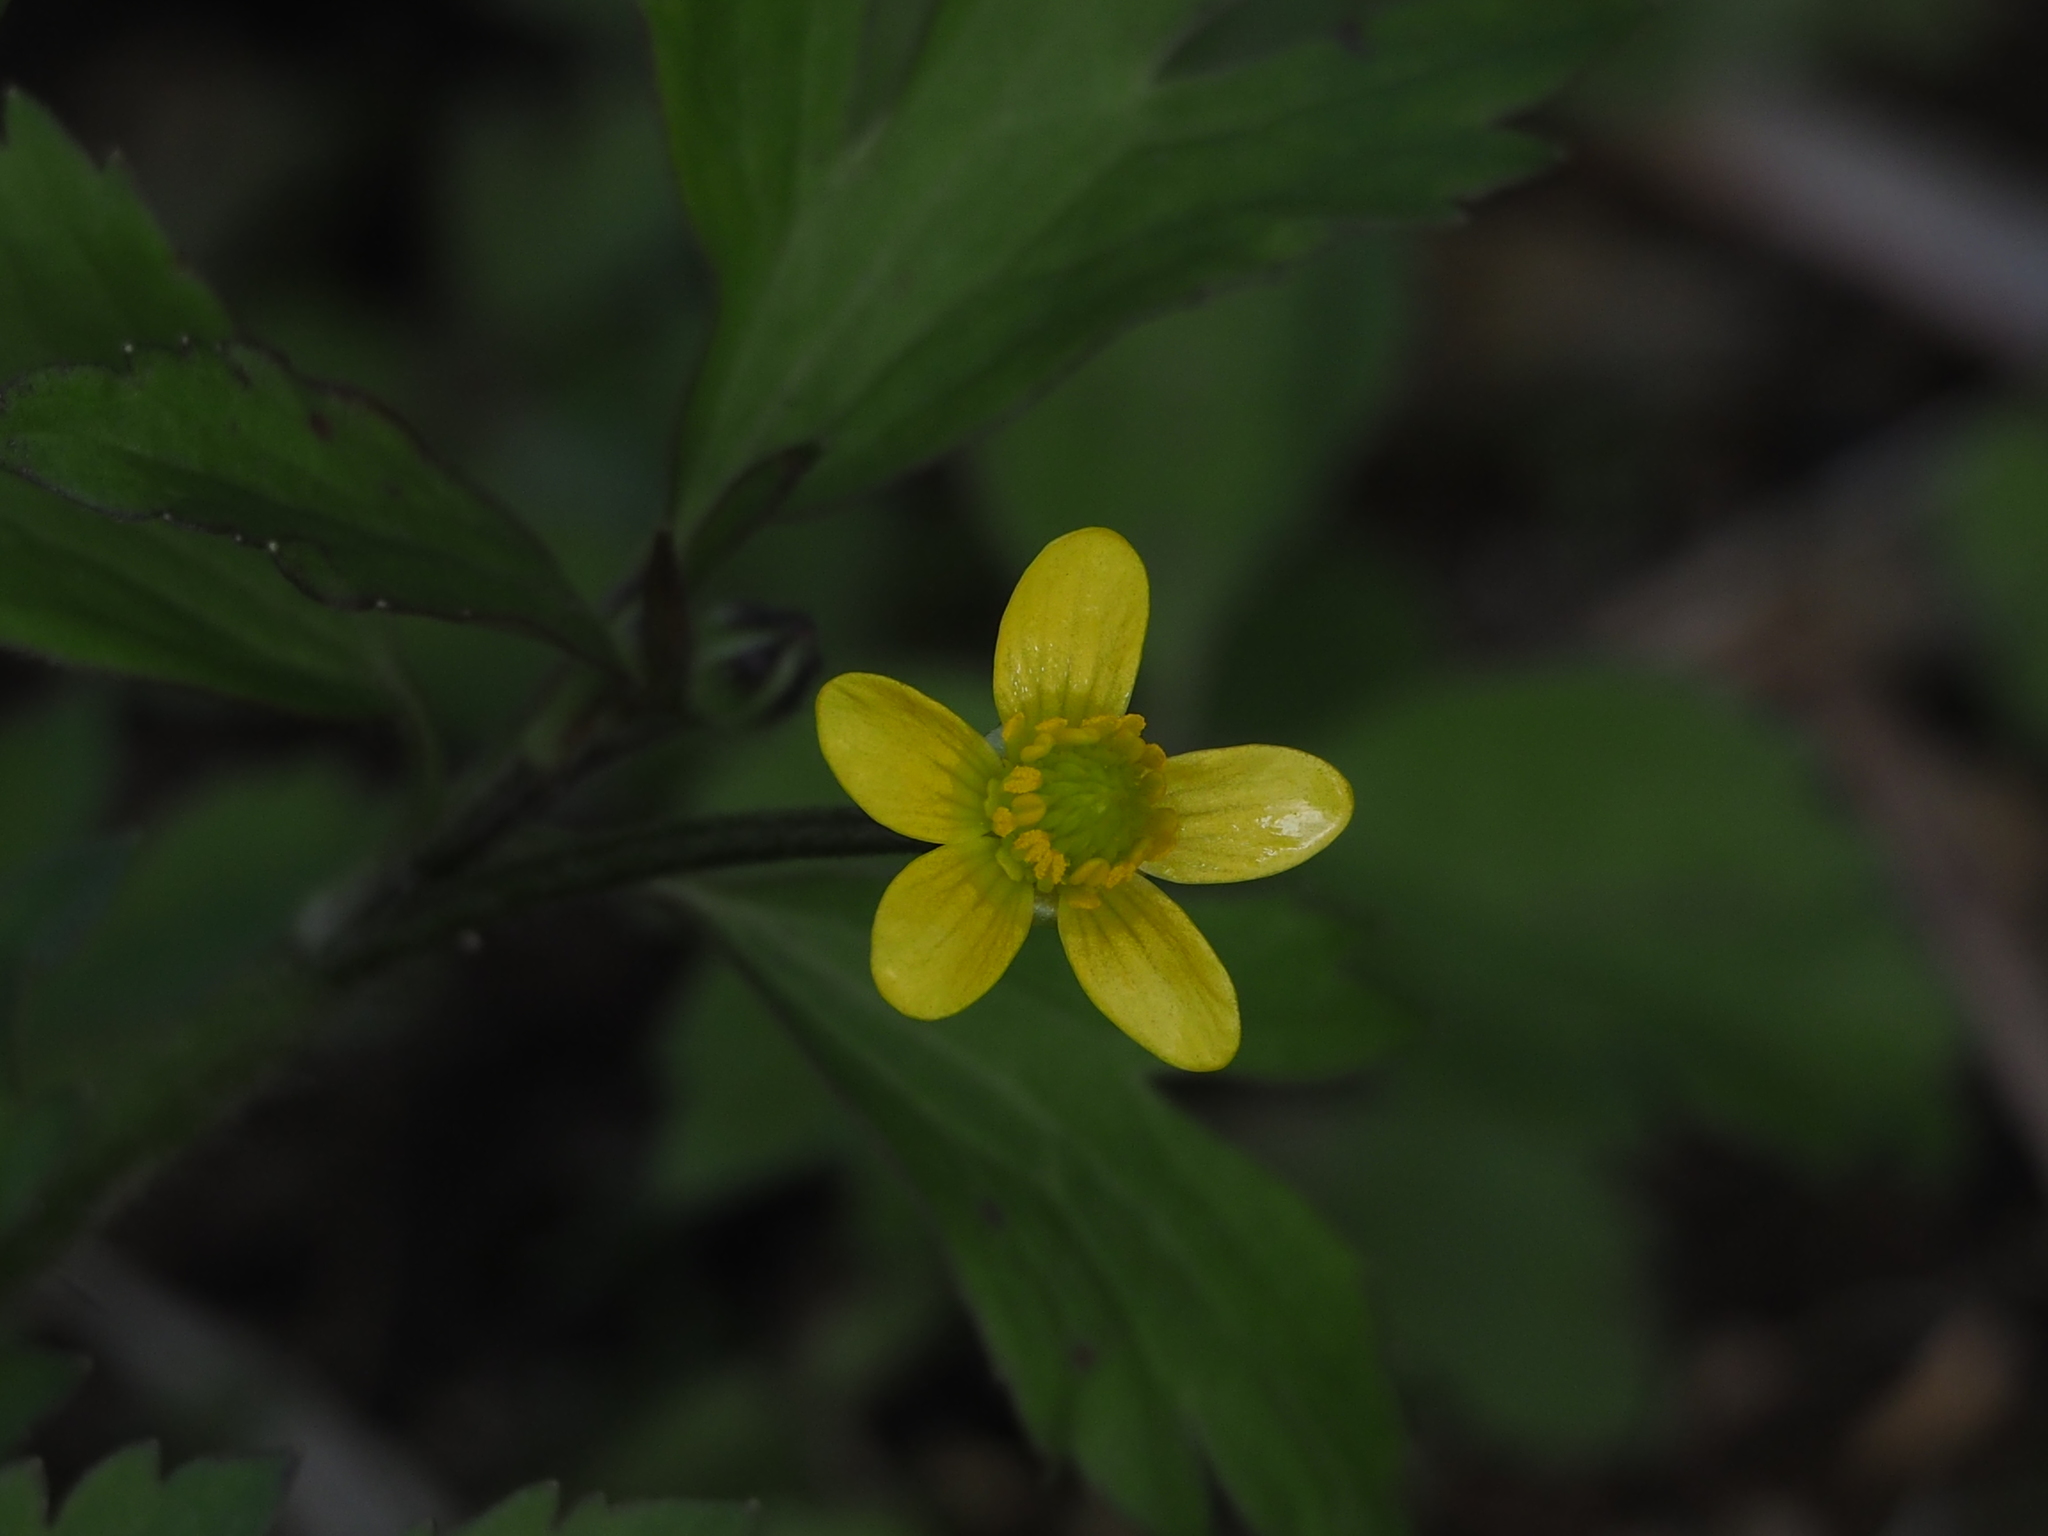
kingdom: Plantae
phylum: Tracheophyta
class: Magnoliopsida
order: Ranunculales
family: Ranunculaceae
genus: Ranunculus
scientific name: Ranunculus cantoniensis
